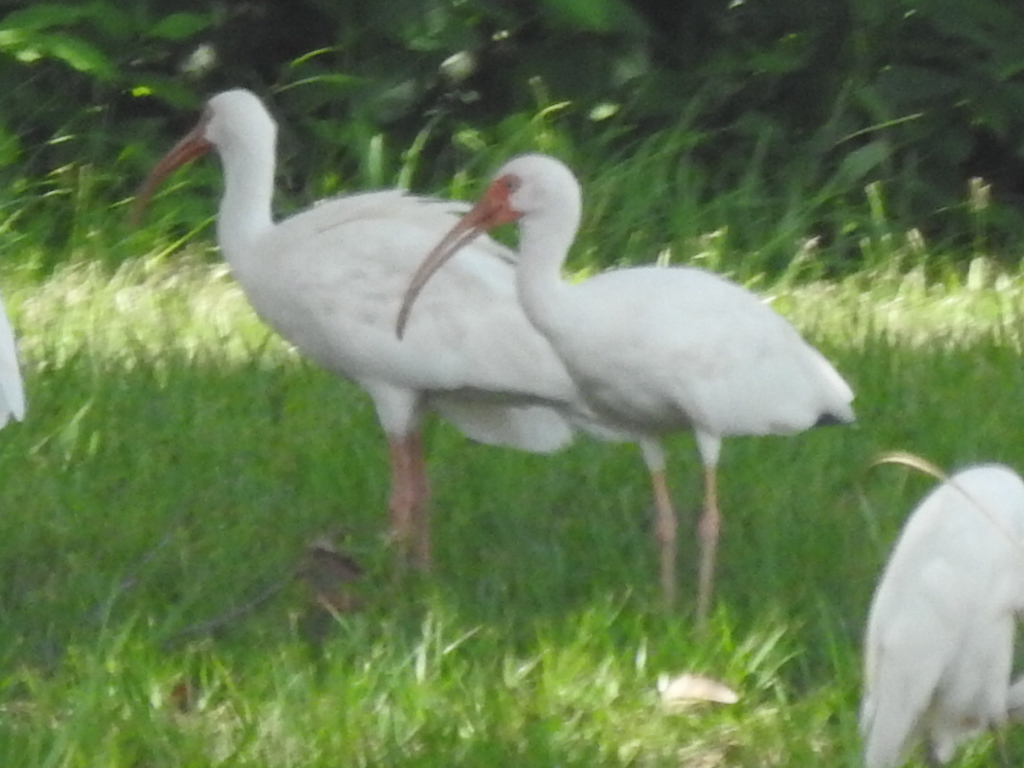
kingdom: Animalia
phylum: Chordata
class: Aves
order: Pelecaniformes
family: Threskiornithidae
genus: Eudocimus
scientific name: Eudocimus albus
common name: White ibis
